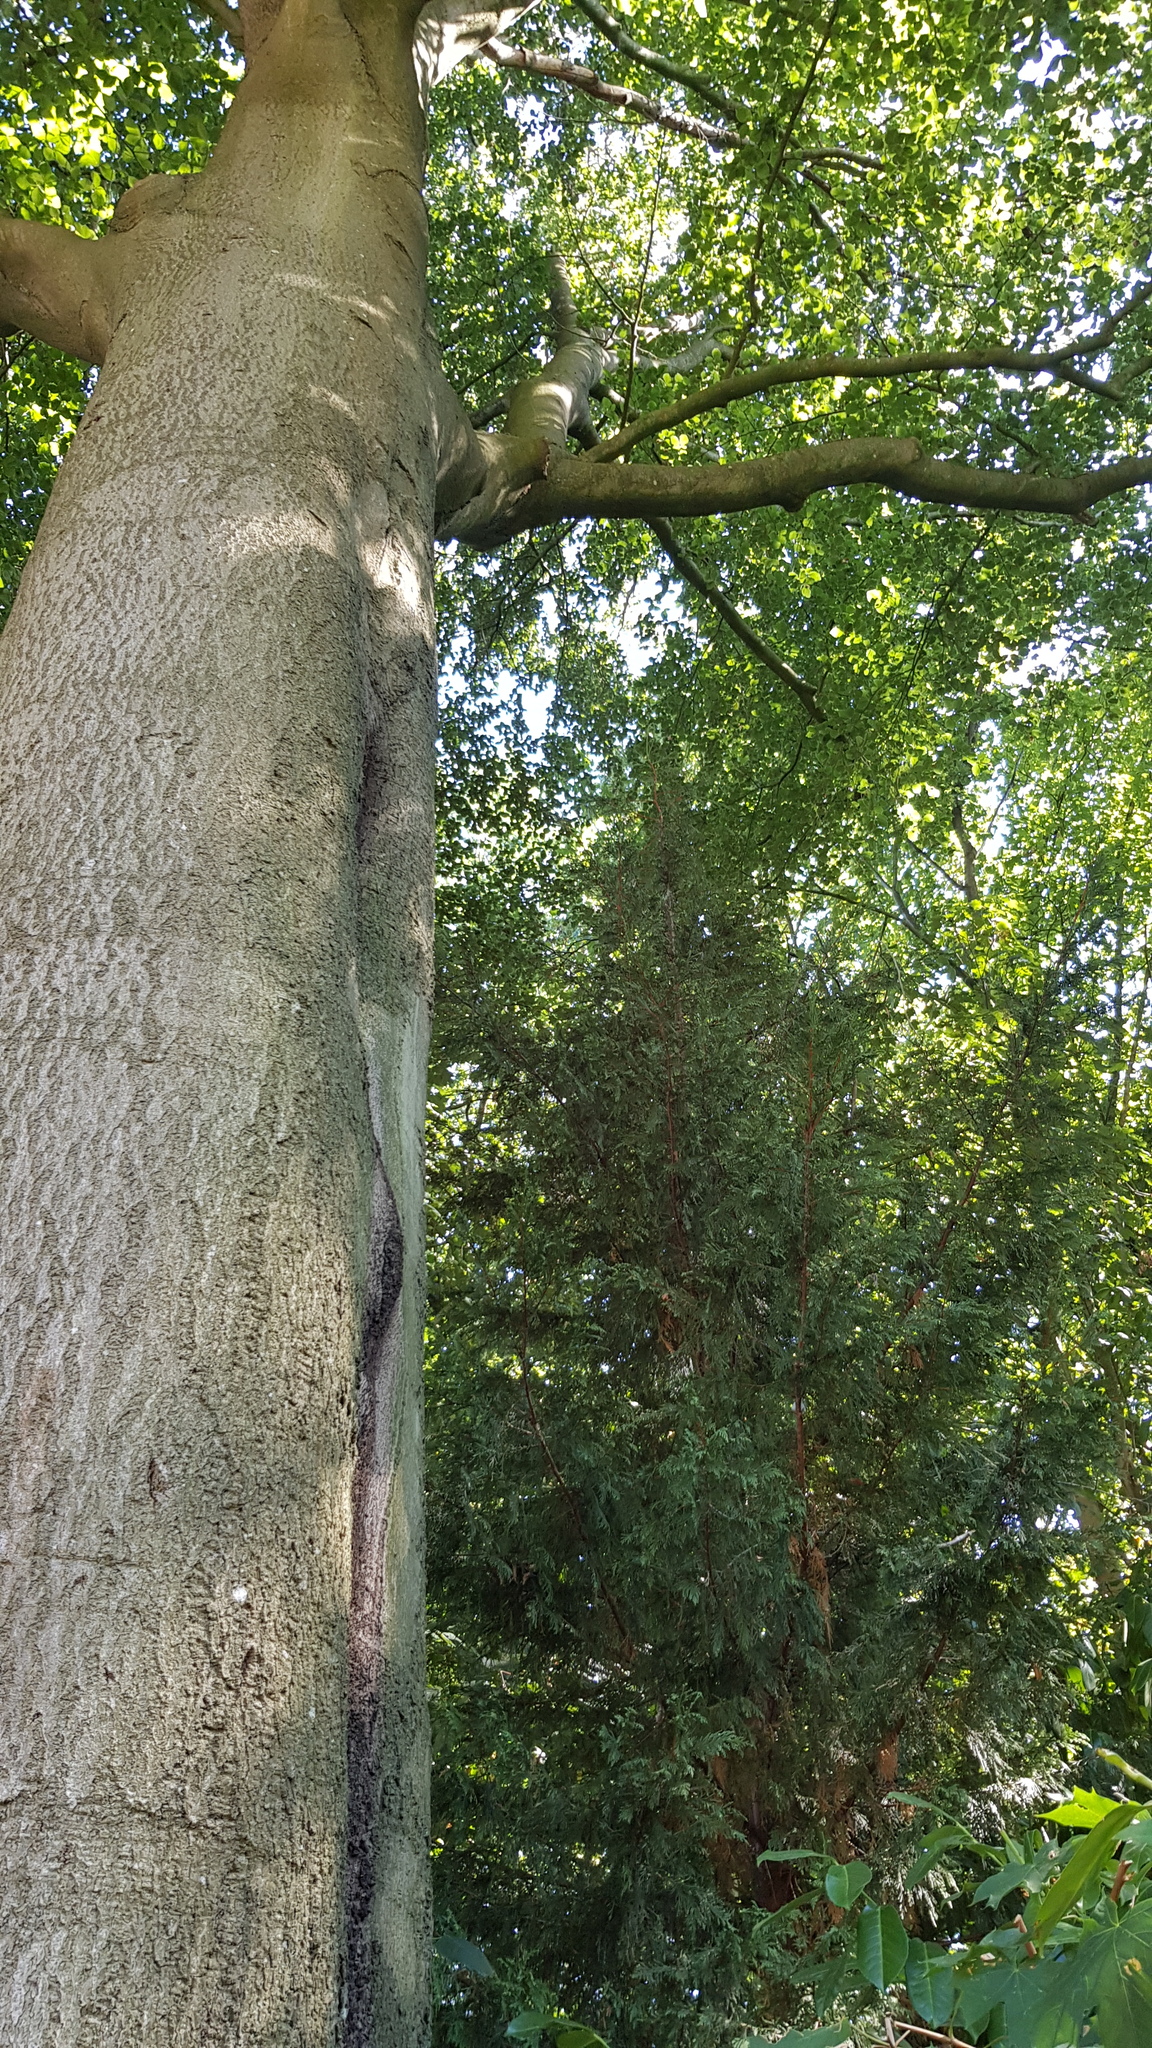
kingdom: Animalia
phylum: Arthropoda
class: Insecta
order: Hymenoptera
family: Vespidae
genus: Vespa
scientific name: Vespa velutina
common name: Asian hornet
